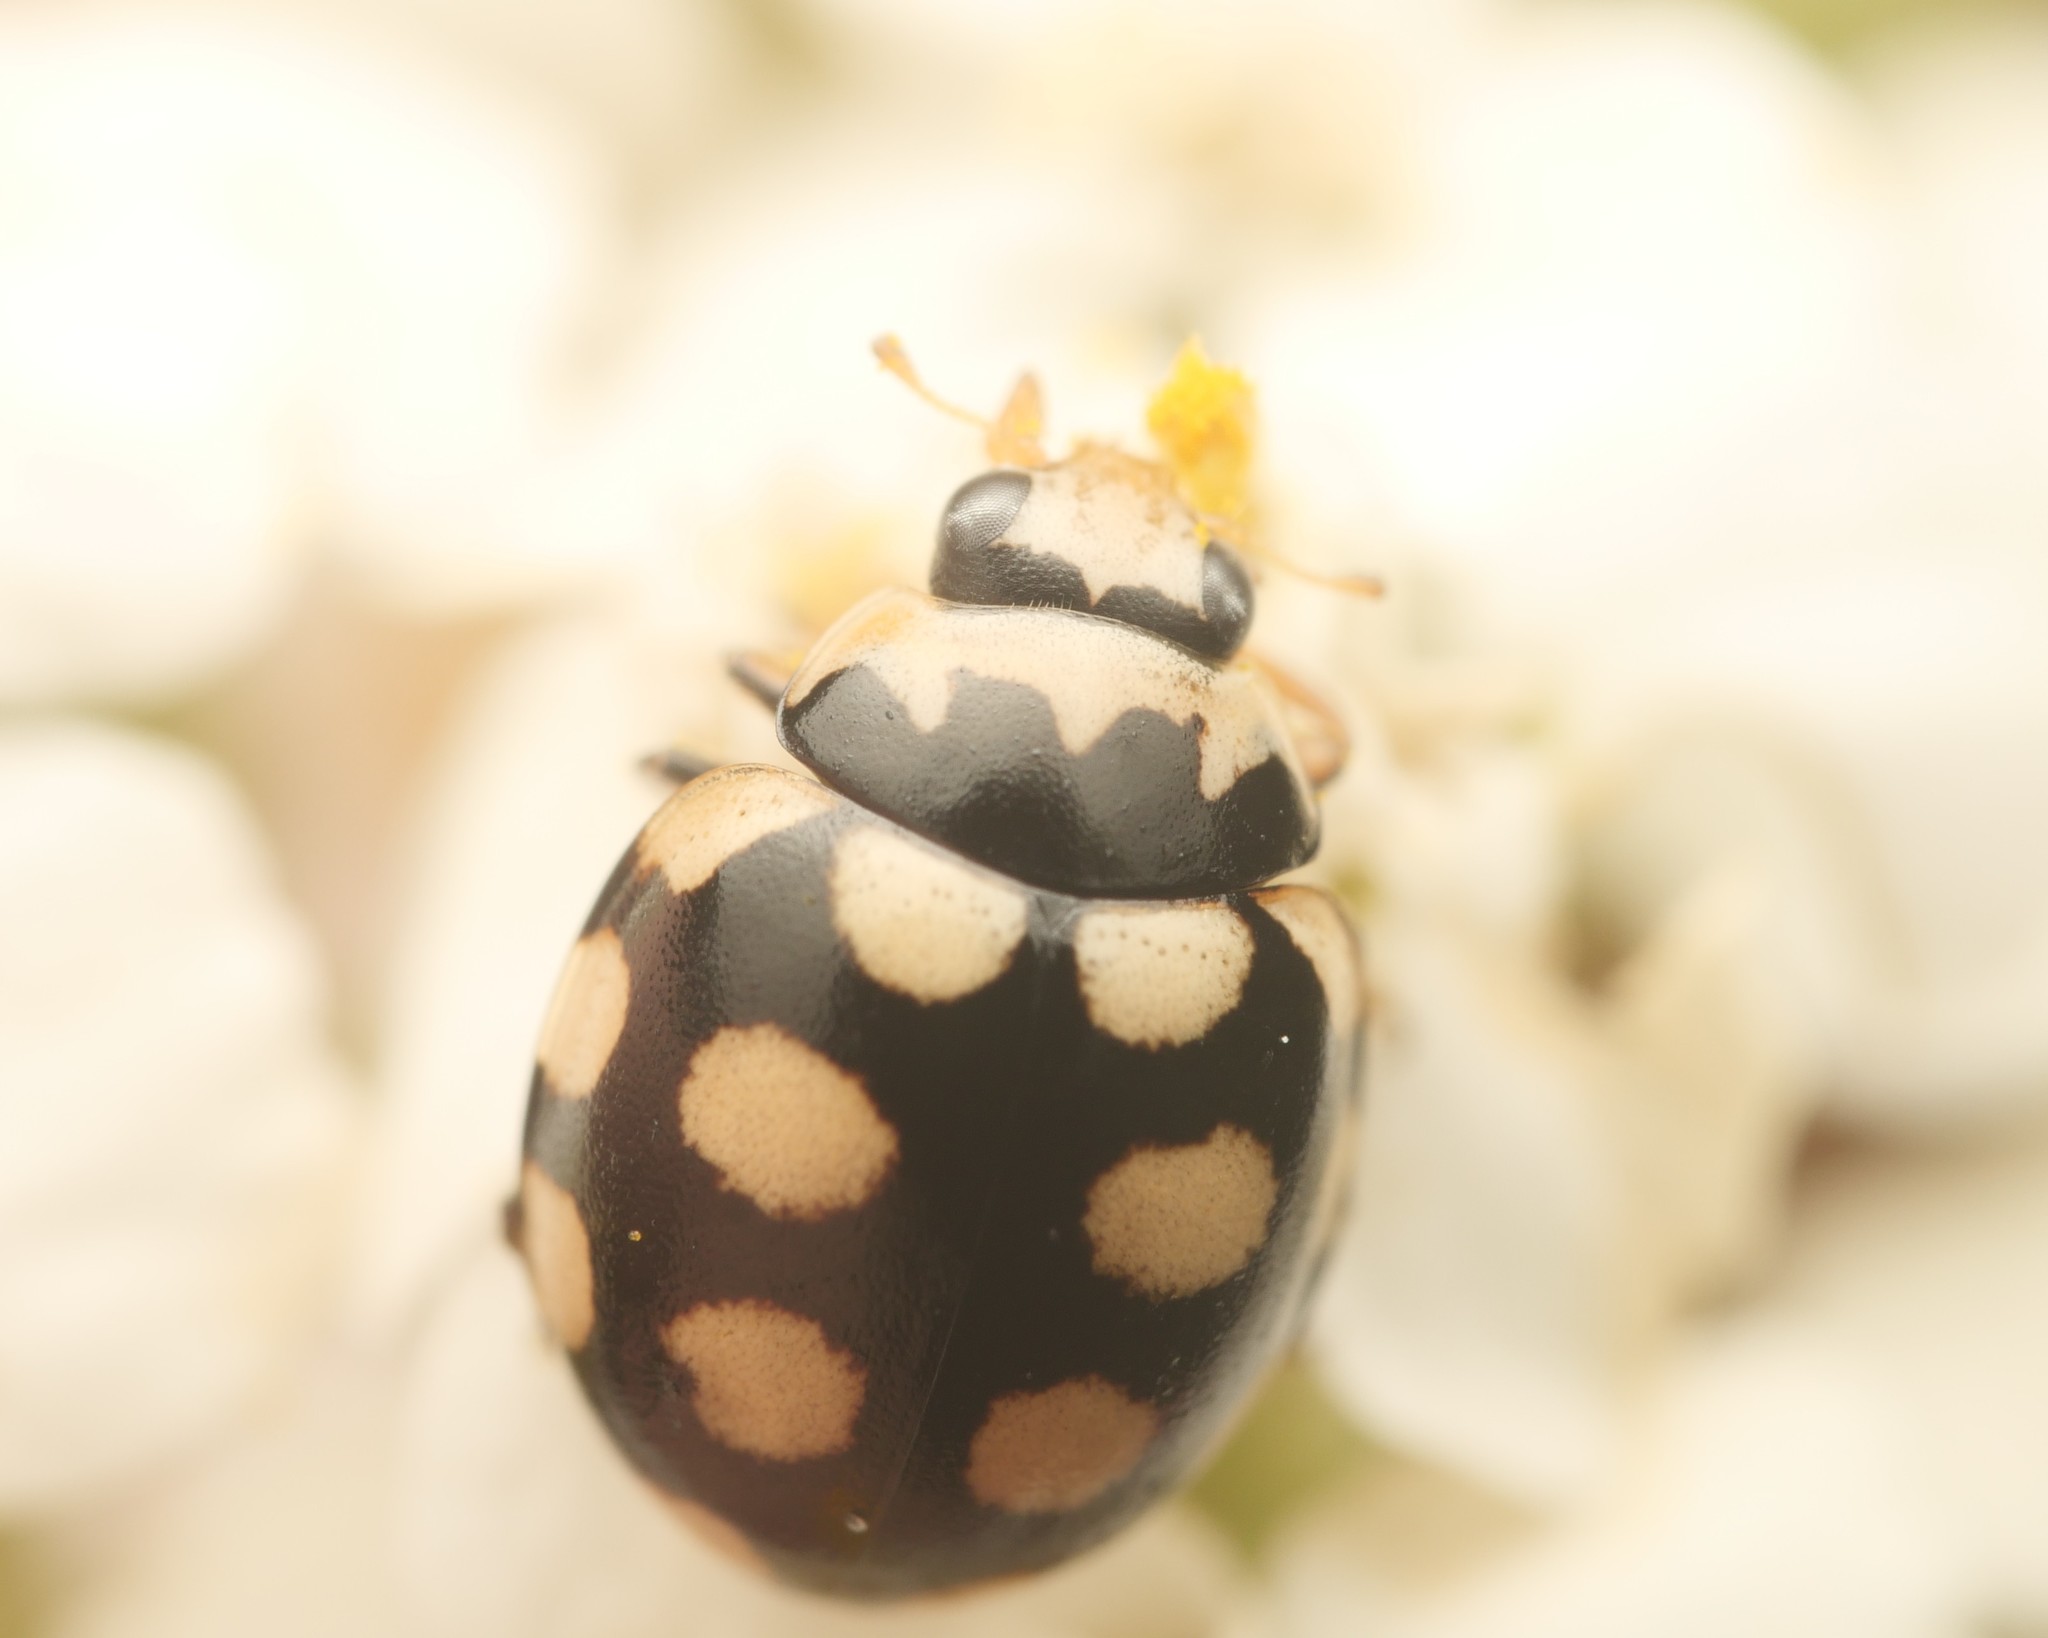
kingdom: Animalia
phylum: Arthropoda
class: Insecta
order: Coleoptera
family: Coccinellidae
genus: Coccinula
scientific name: Coccinula quatuordecimpustulata
